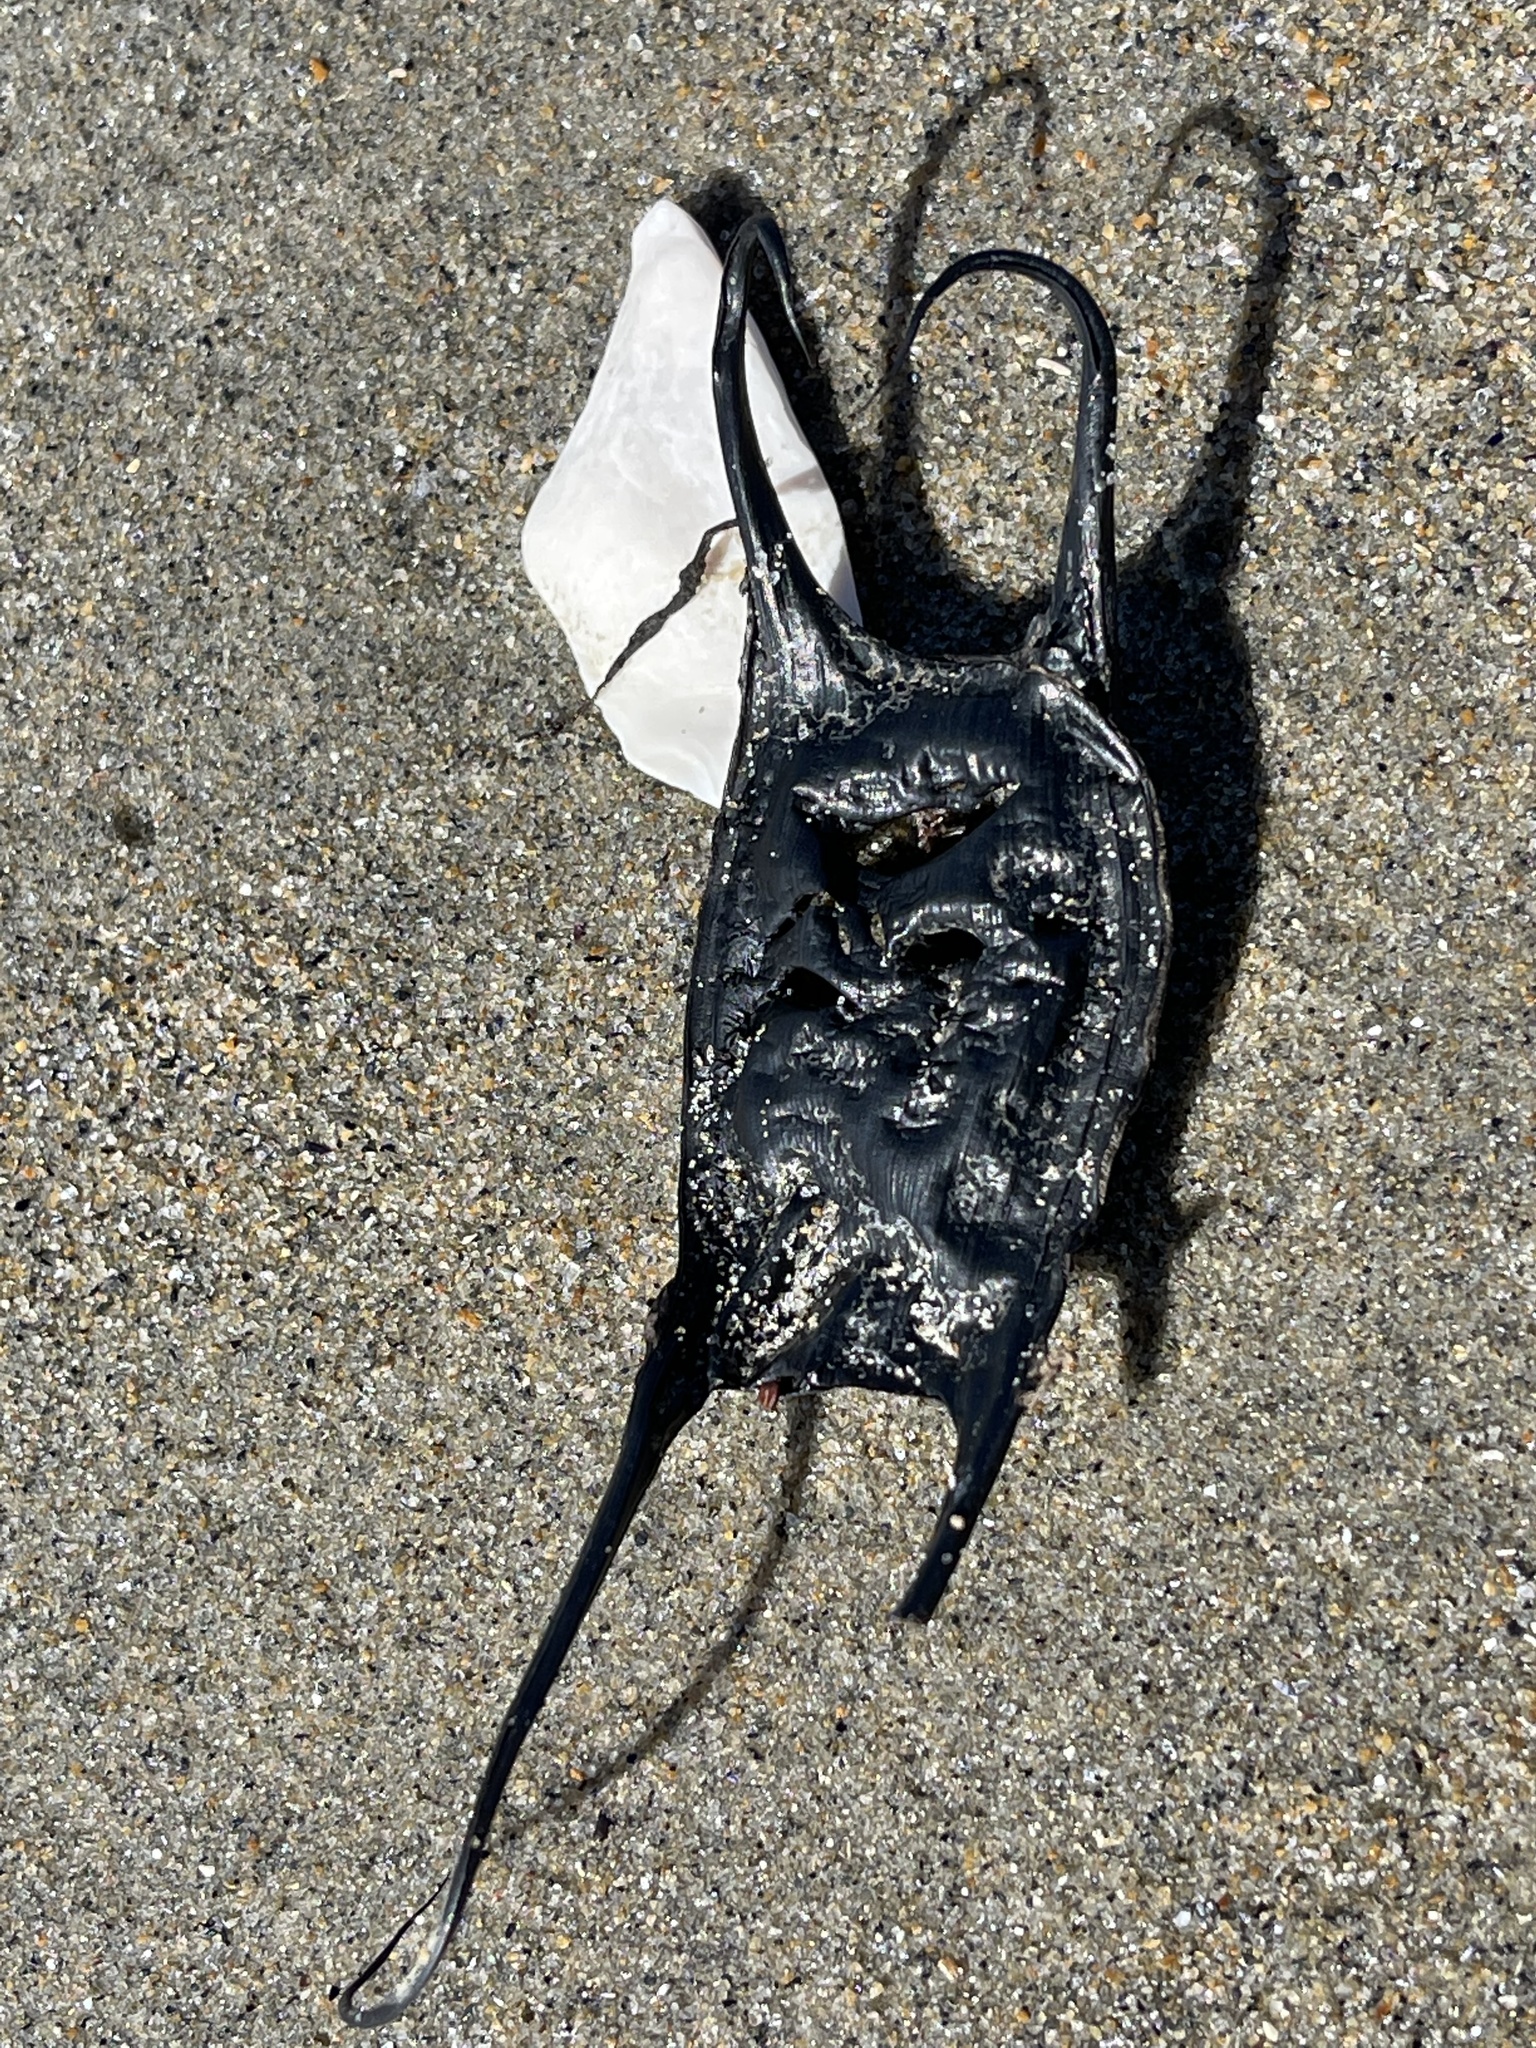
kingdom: Animalia
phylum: Chordata
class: Elasmobranchii
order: Rajiformes
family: Rajidae
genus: Leucoraja
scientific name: Leucoraja garmani
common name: Rosette skate
